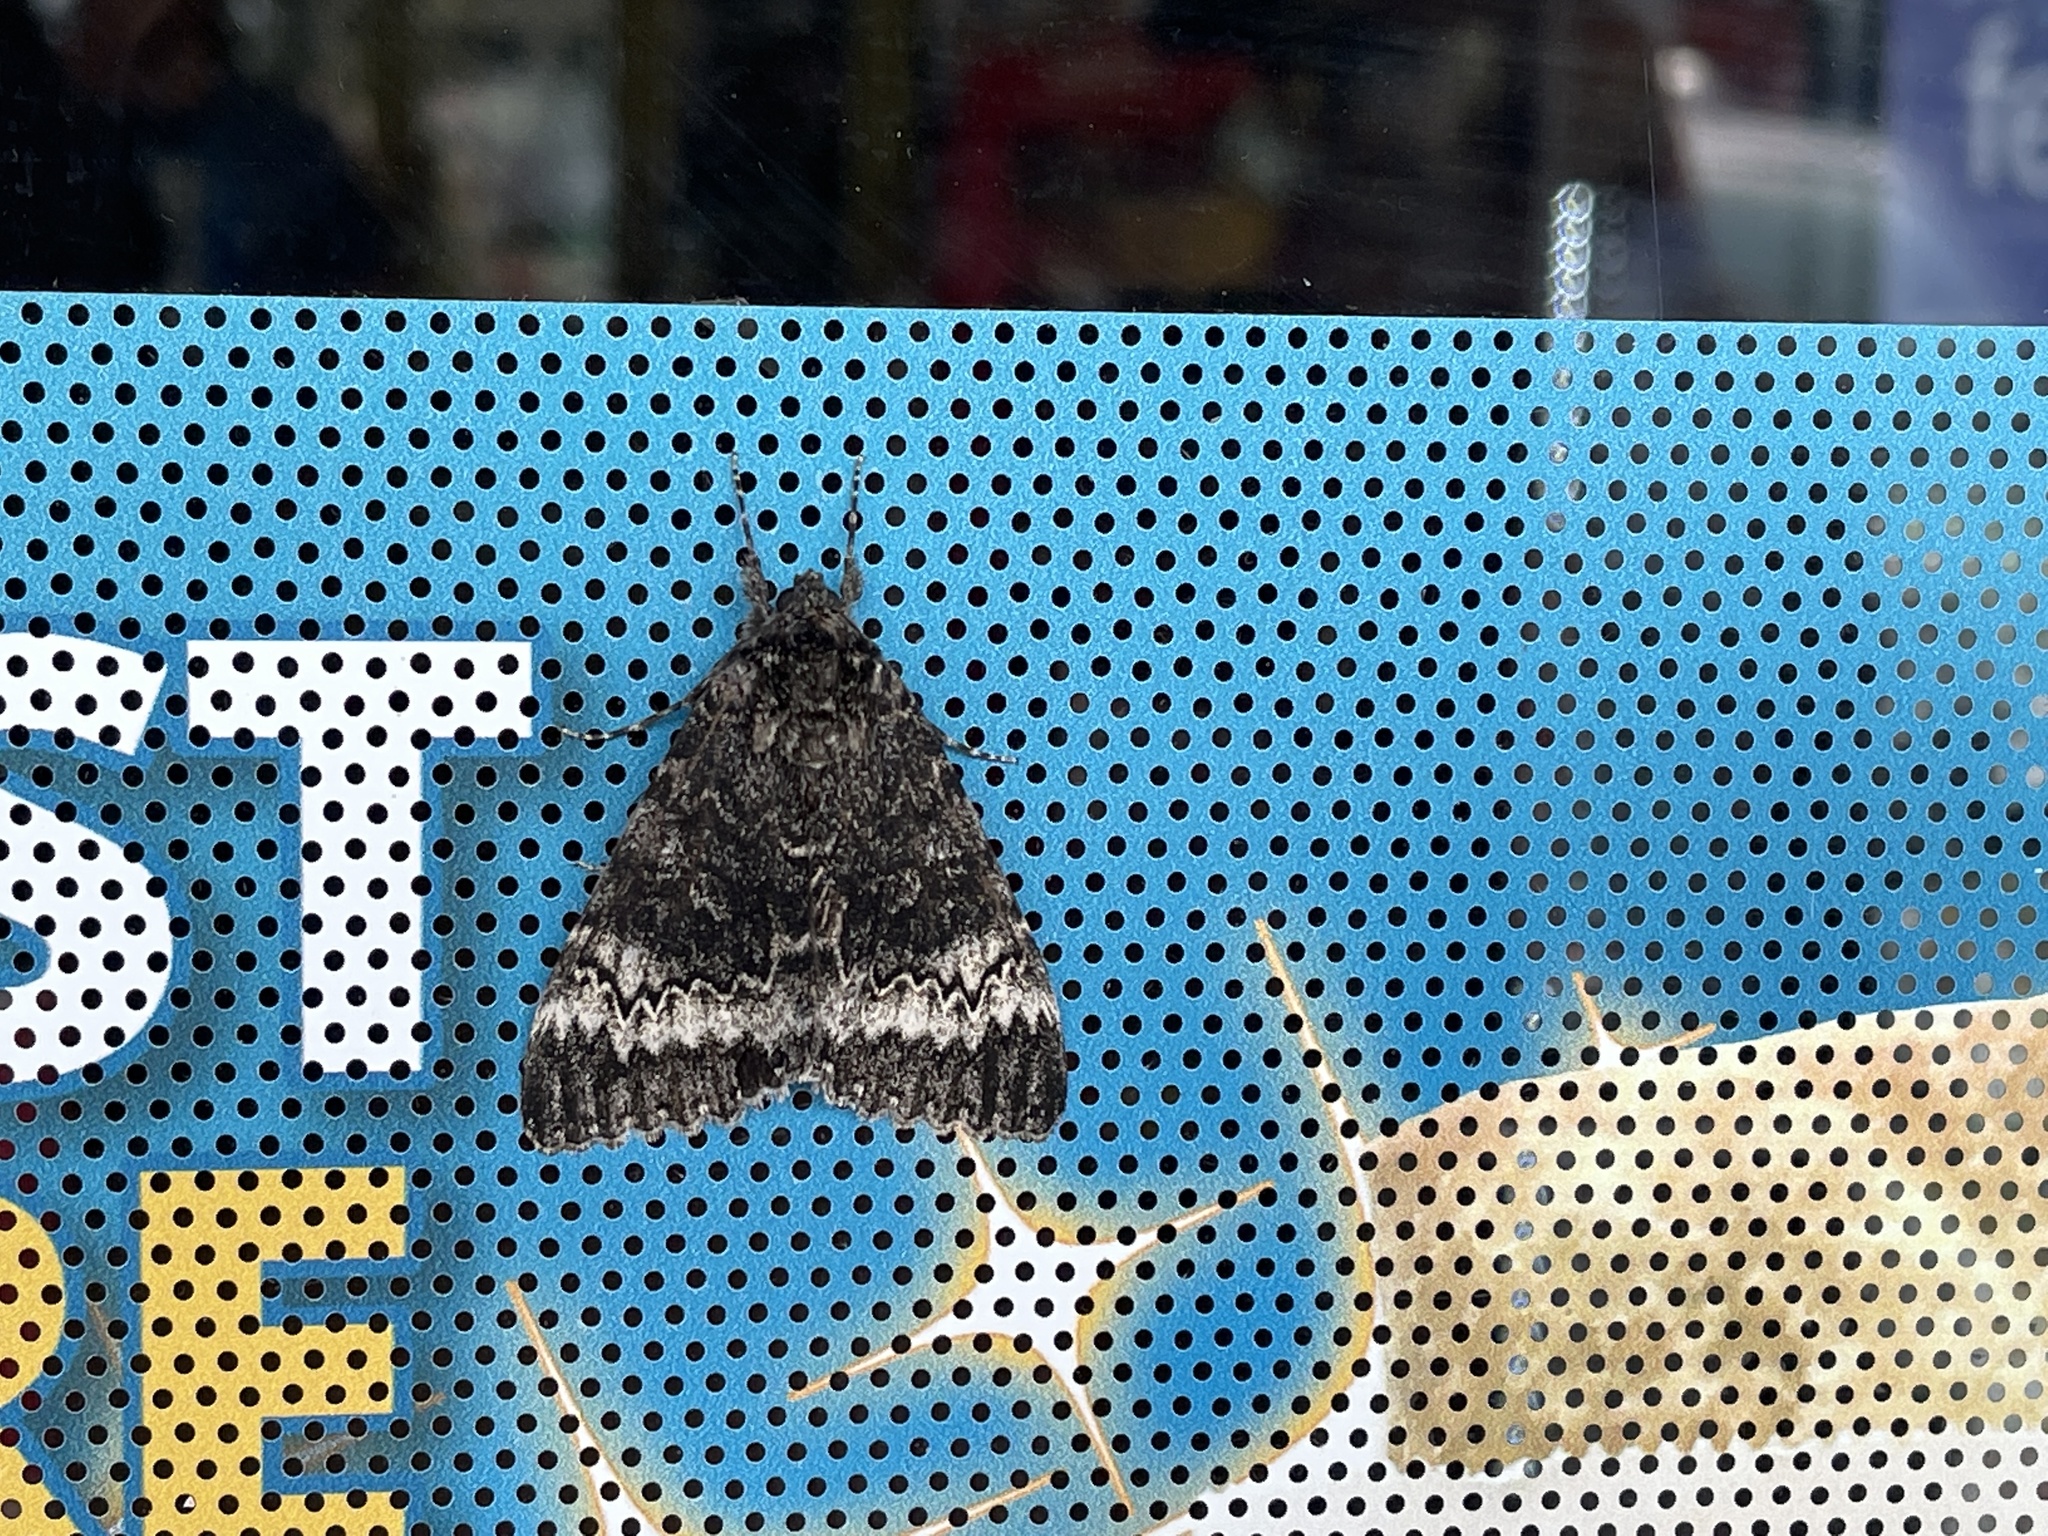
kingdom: Animalia
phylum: Arthropoda
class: Insecta
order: Lepidoptera
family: Erebidae
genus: Catocala
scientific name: Catocala grotiana
